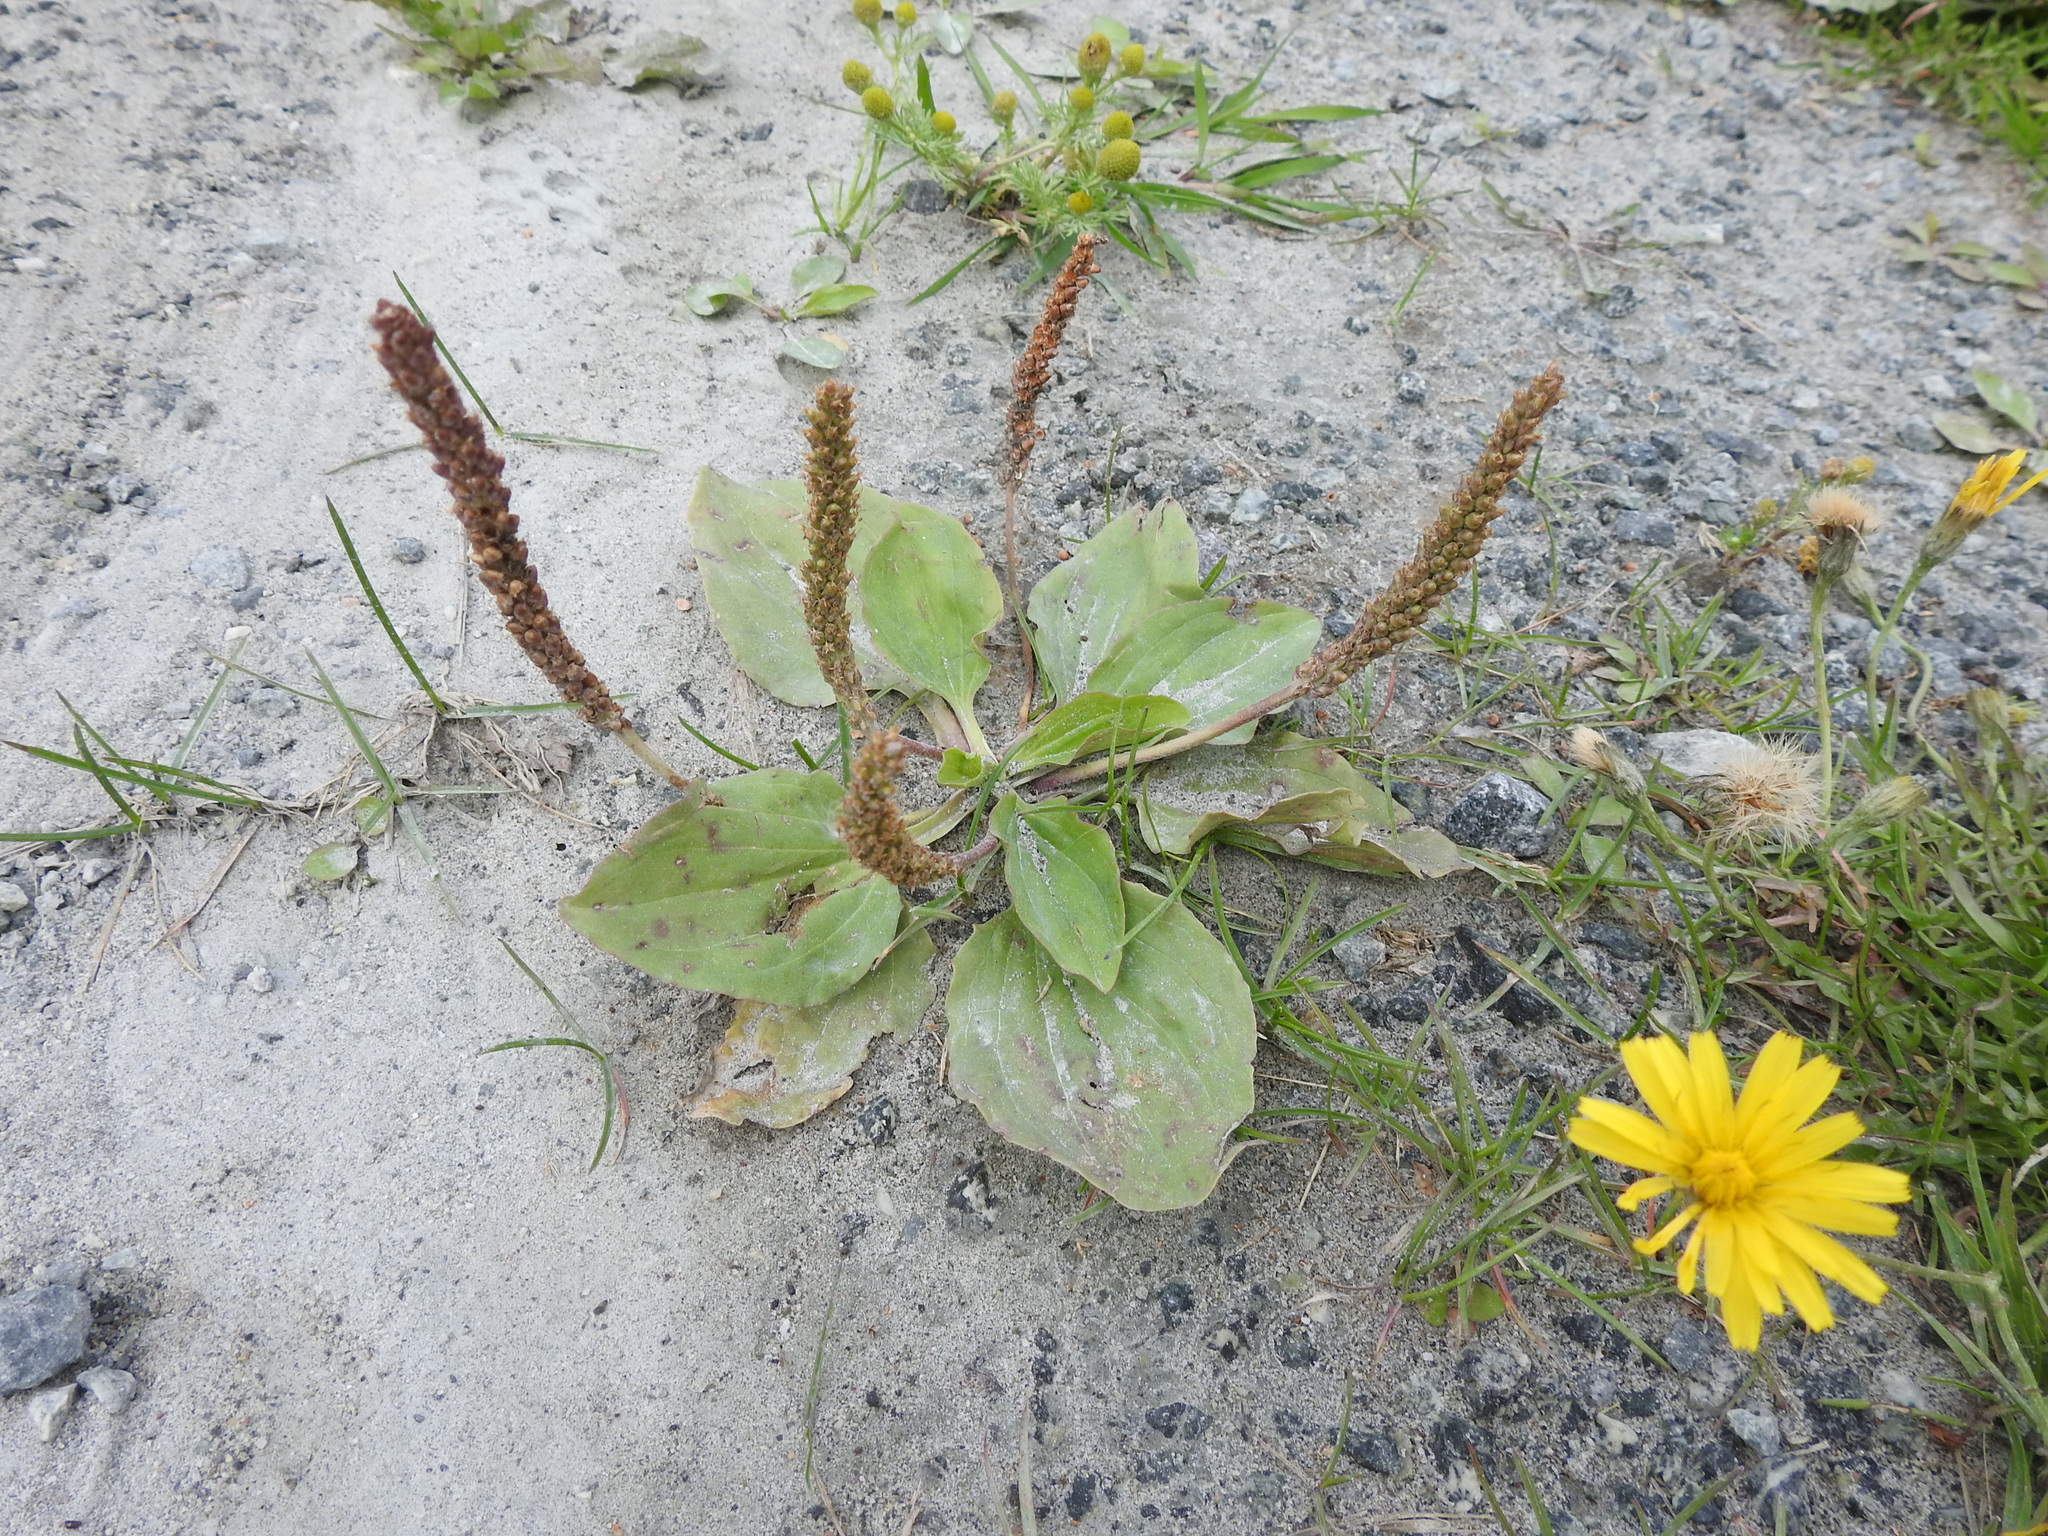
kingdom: Plantae
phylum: Tracheophyta
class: Magnoliopsida
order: Lamiales
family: Plantaginaceae
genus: Plantago
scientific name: Plantago major
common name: Common plantain
